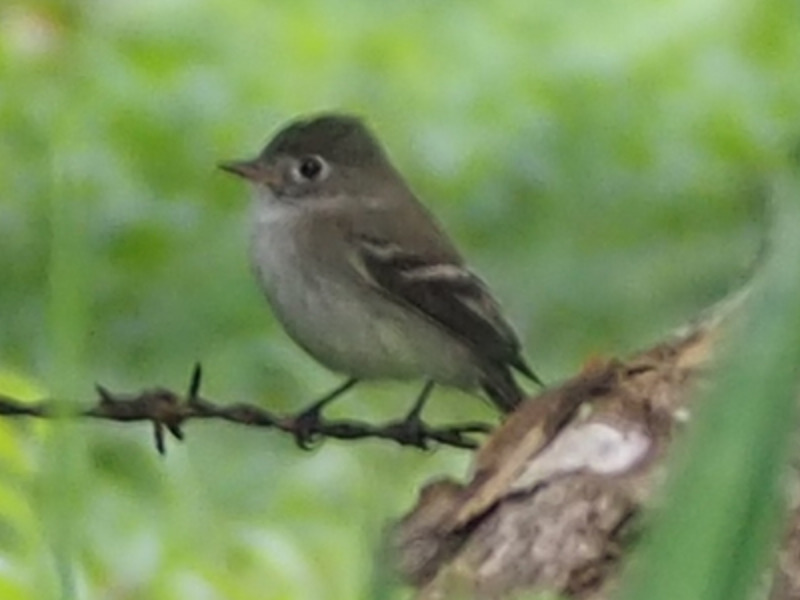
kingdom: Animalia
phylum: Chordata
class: Aves
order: Passeriformes
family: Tyrannidae
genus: Empidonax
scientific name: Empidonax minimus
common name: Least flycatcher
